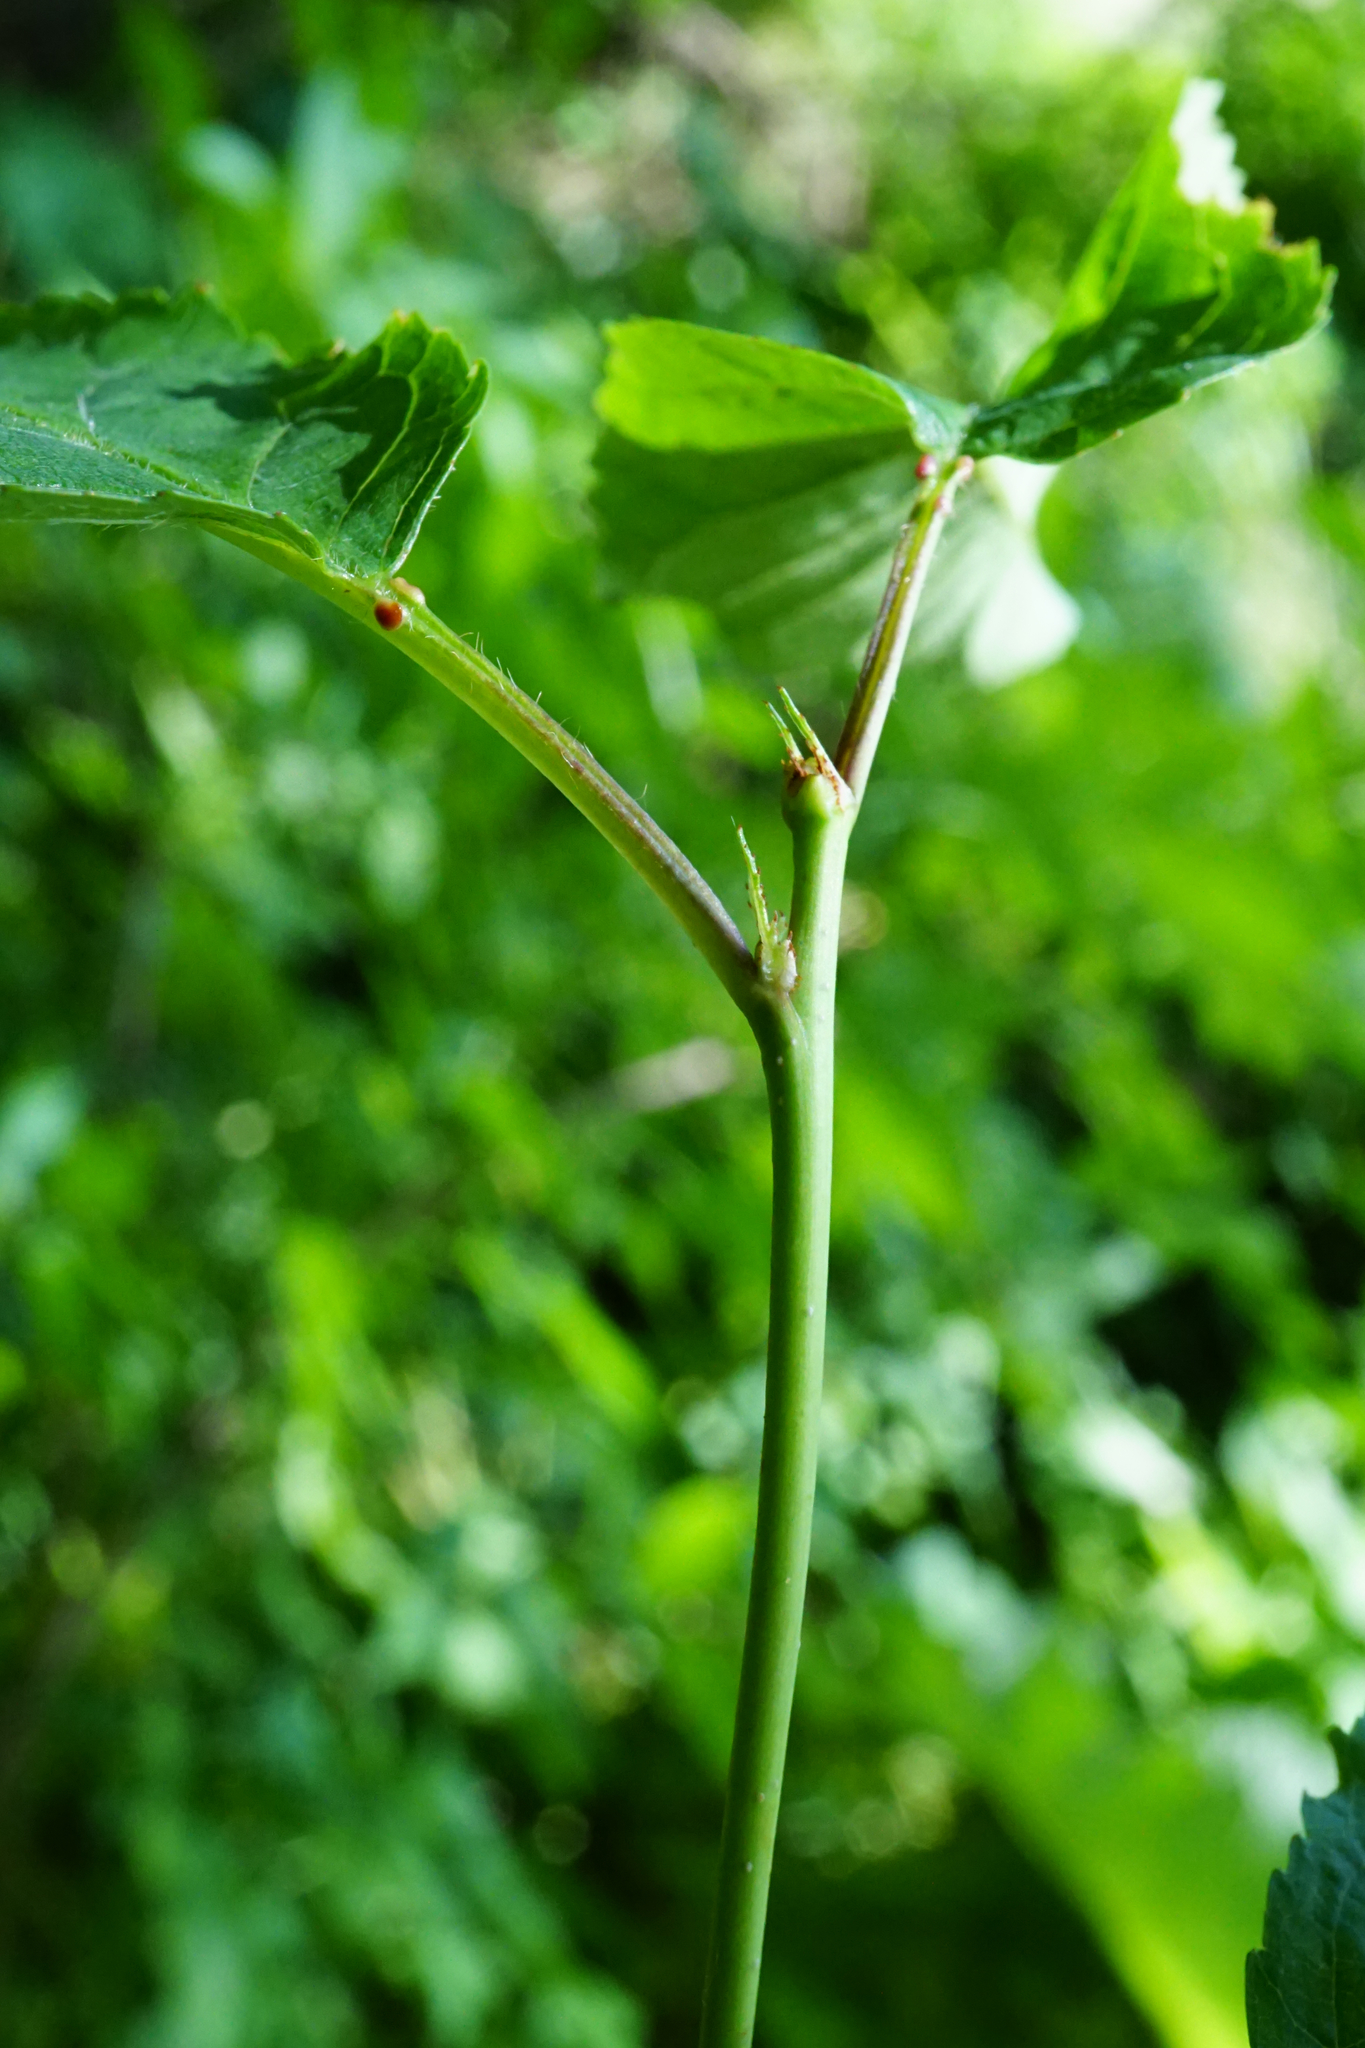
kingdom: Plantae
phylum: Tracheophyta
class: Magnoliopsida
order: Rosales
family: Rosaceae
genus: Prunus
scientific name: Prunus avium
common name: Sweet cherry
